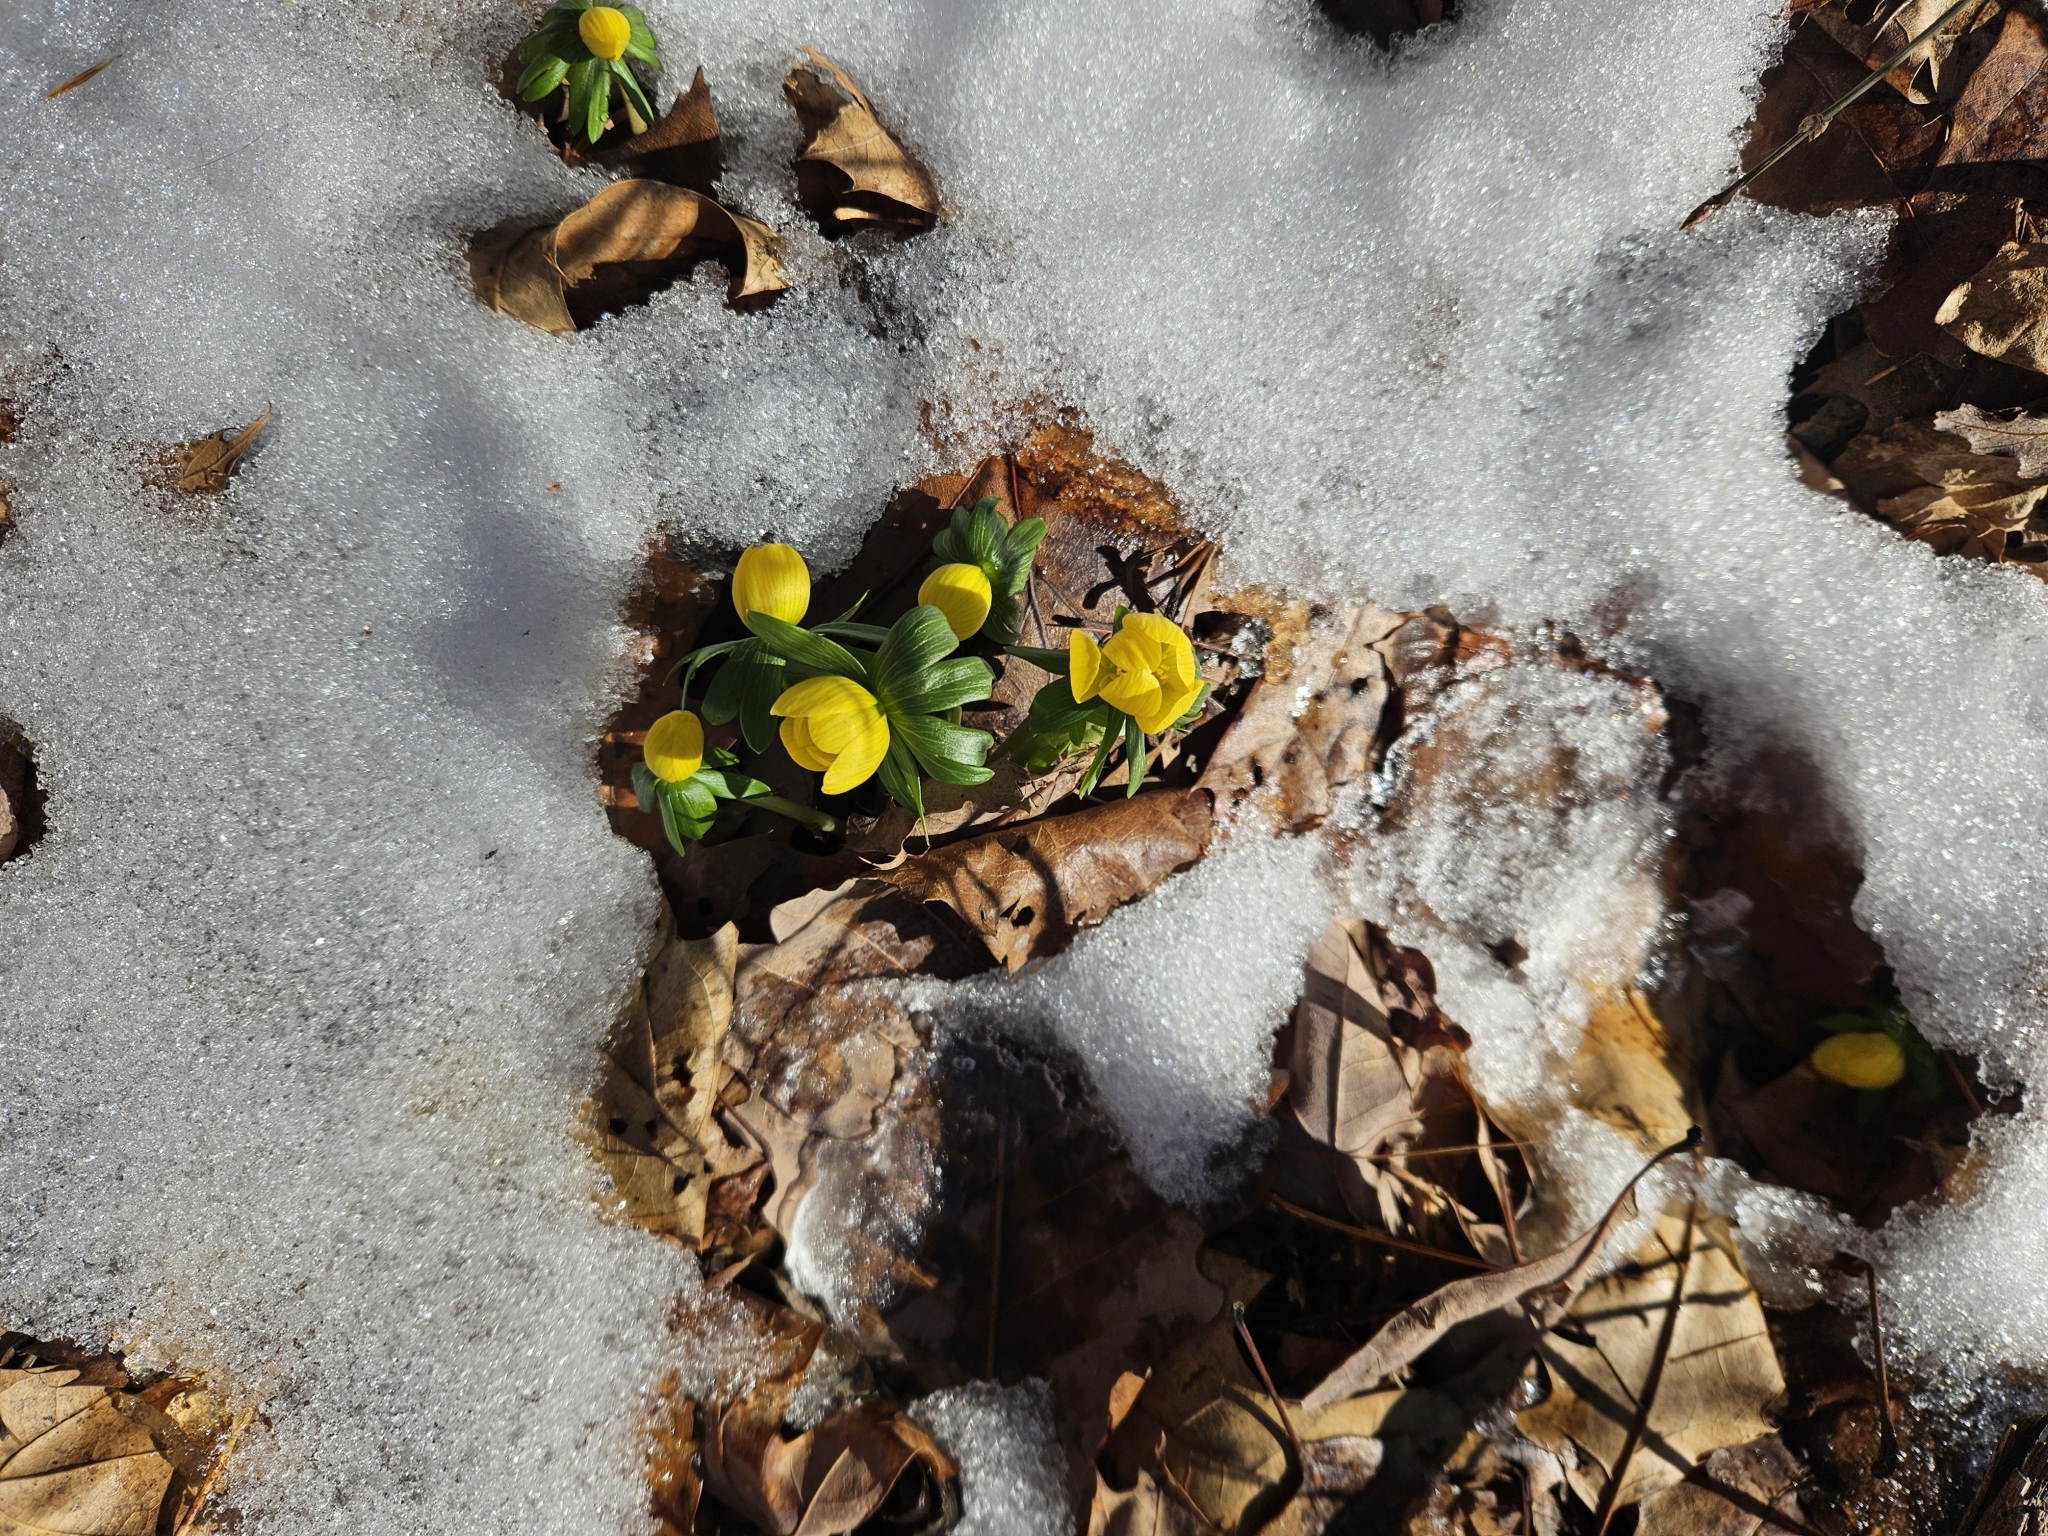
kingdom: Plantae
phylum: Tracheophyta
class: Magnoliopsida
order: Ranunculales
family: Ranunculaceae
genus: Eranthis
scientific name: Eranthis hyemalis
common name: Winter aconite
